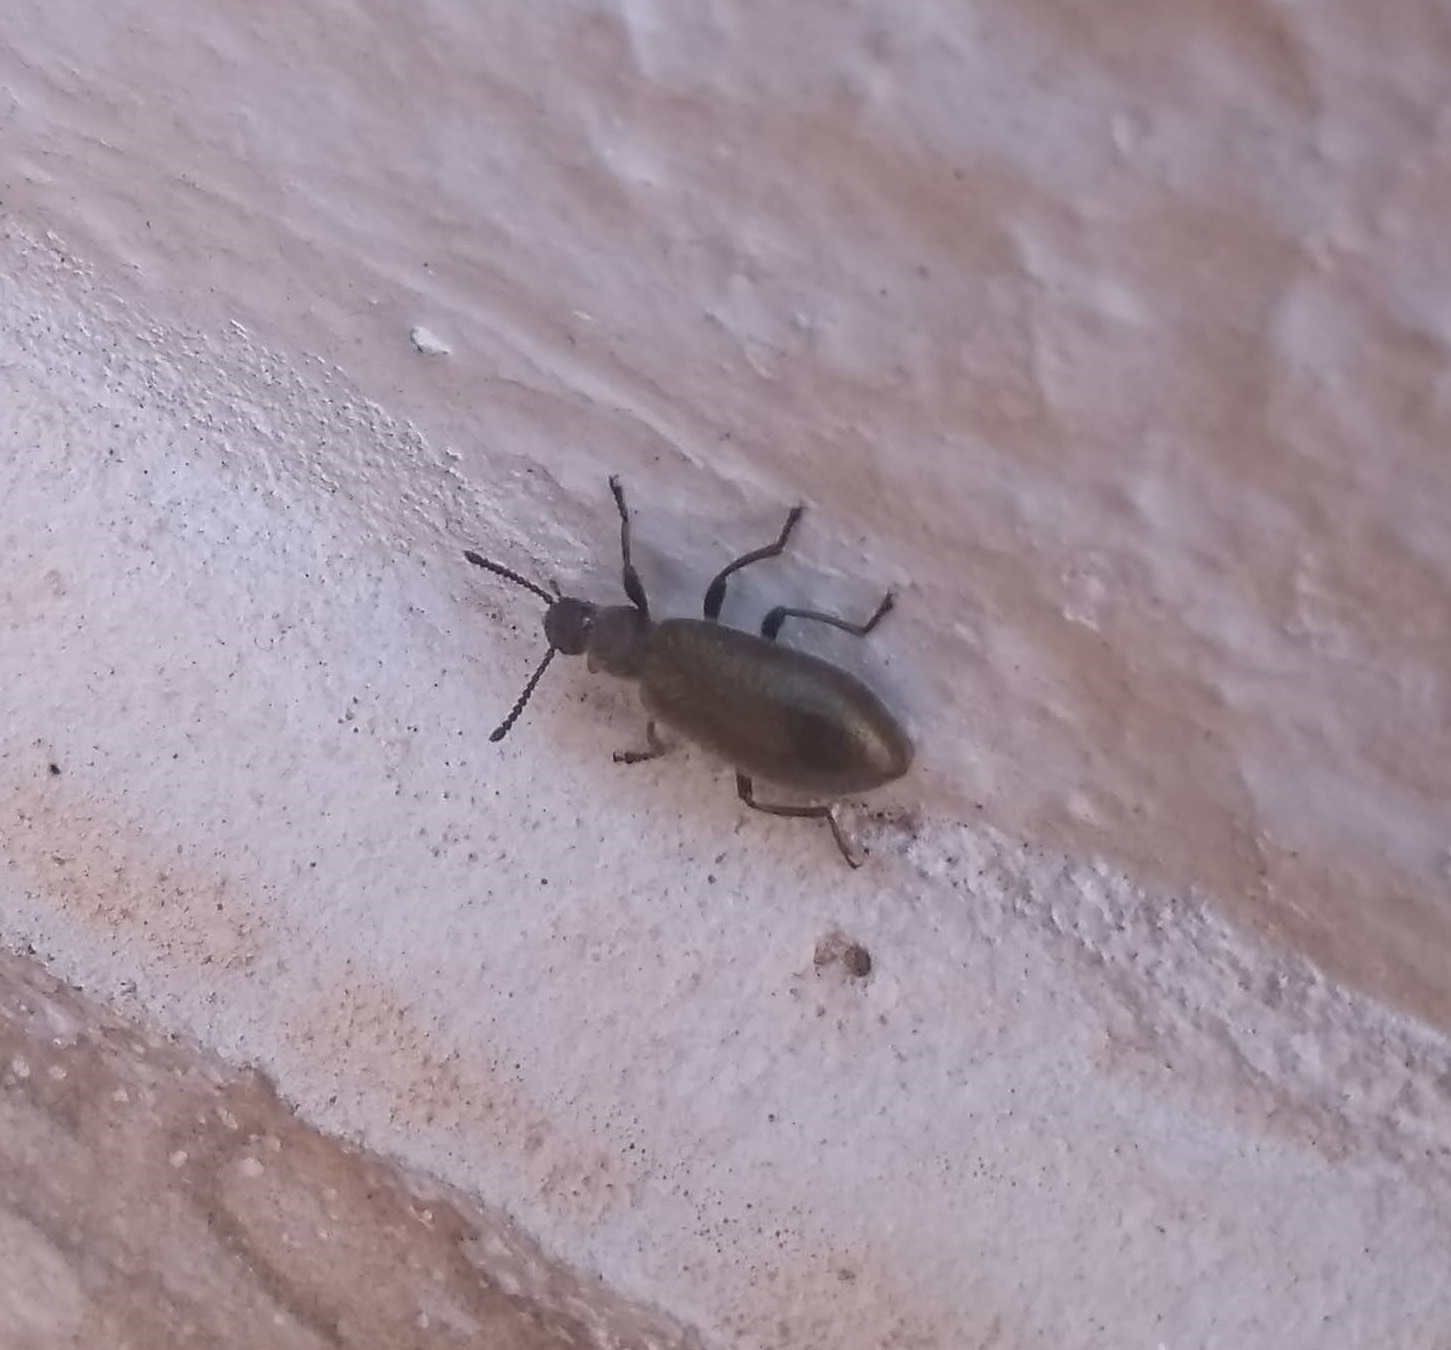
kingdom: Animalia
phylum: Arthropoda
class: Insecta
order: Coleoptera
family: Tenebrionidae
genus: Lagria
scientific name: Lagria villosa
